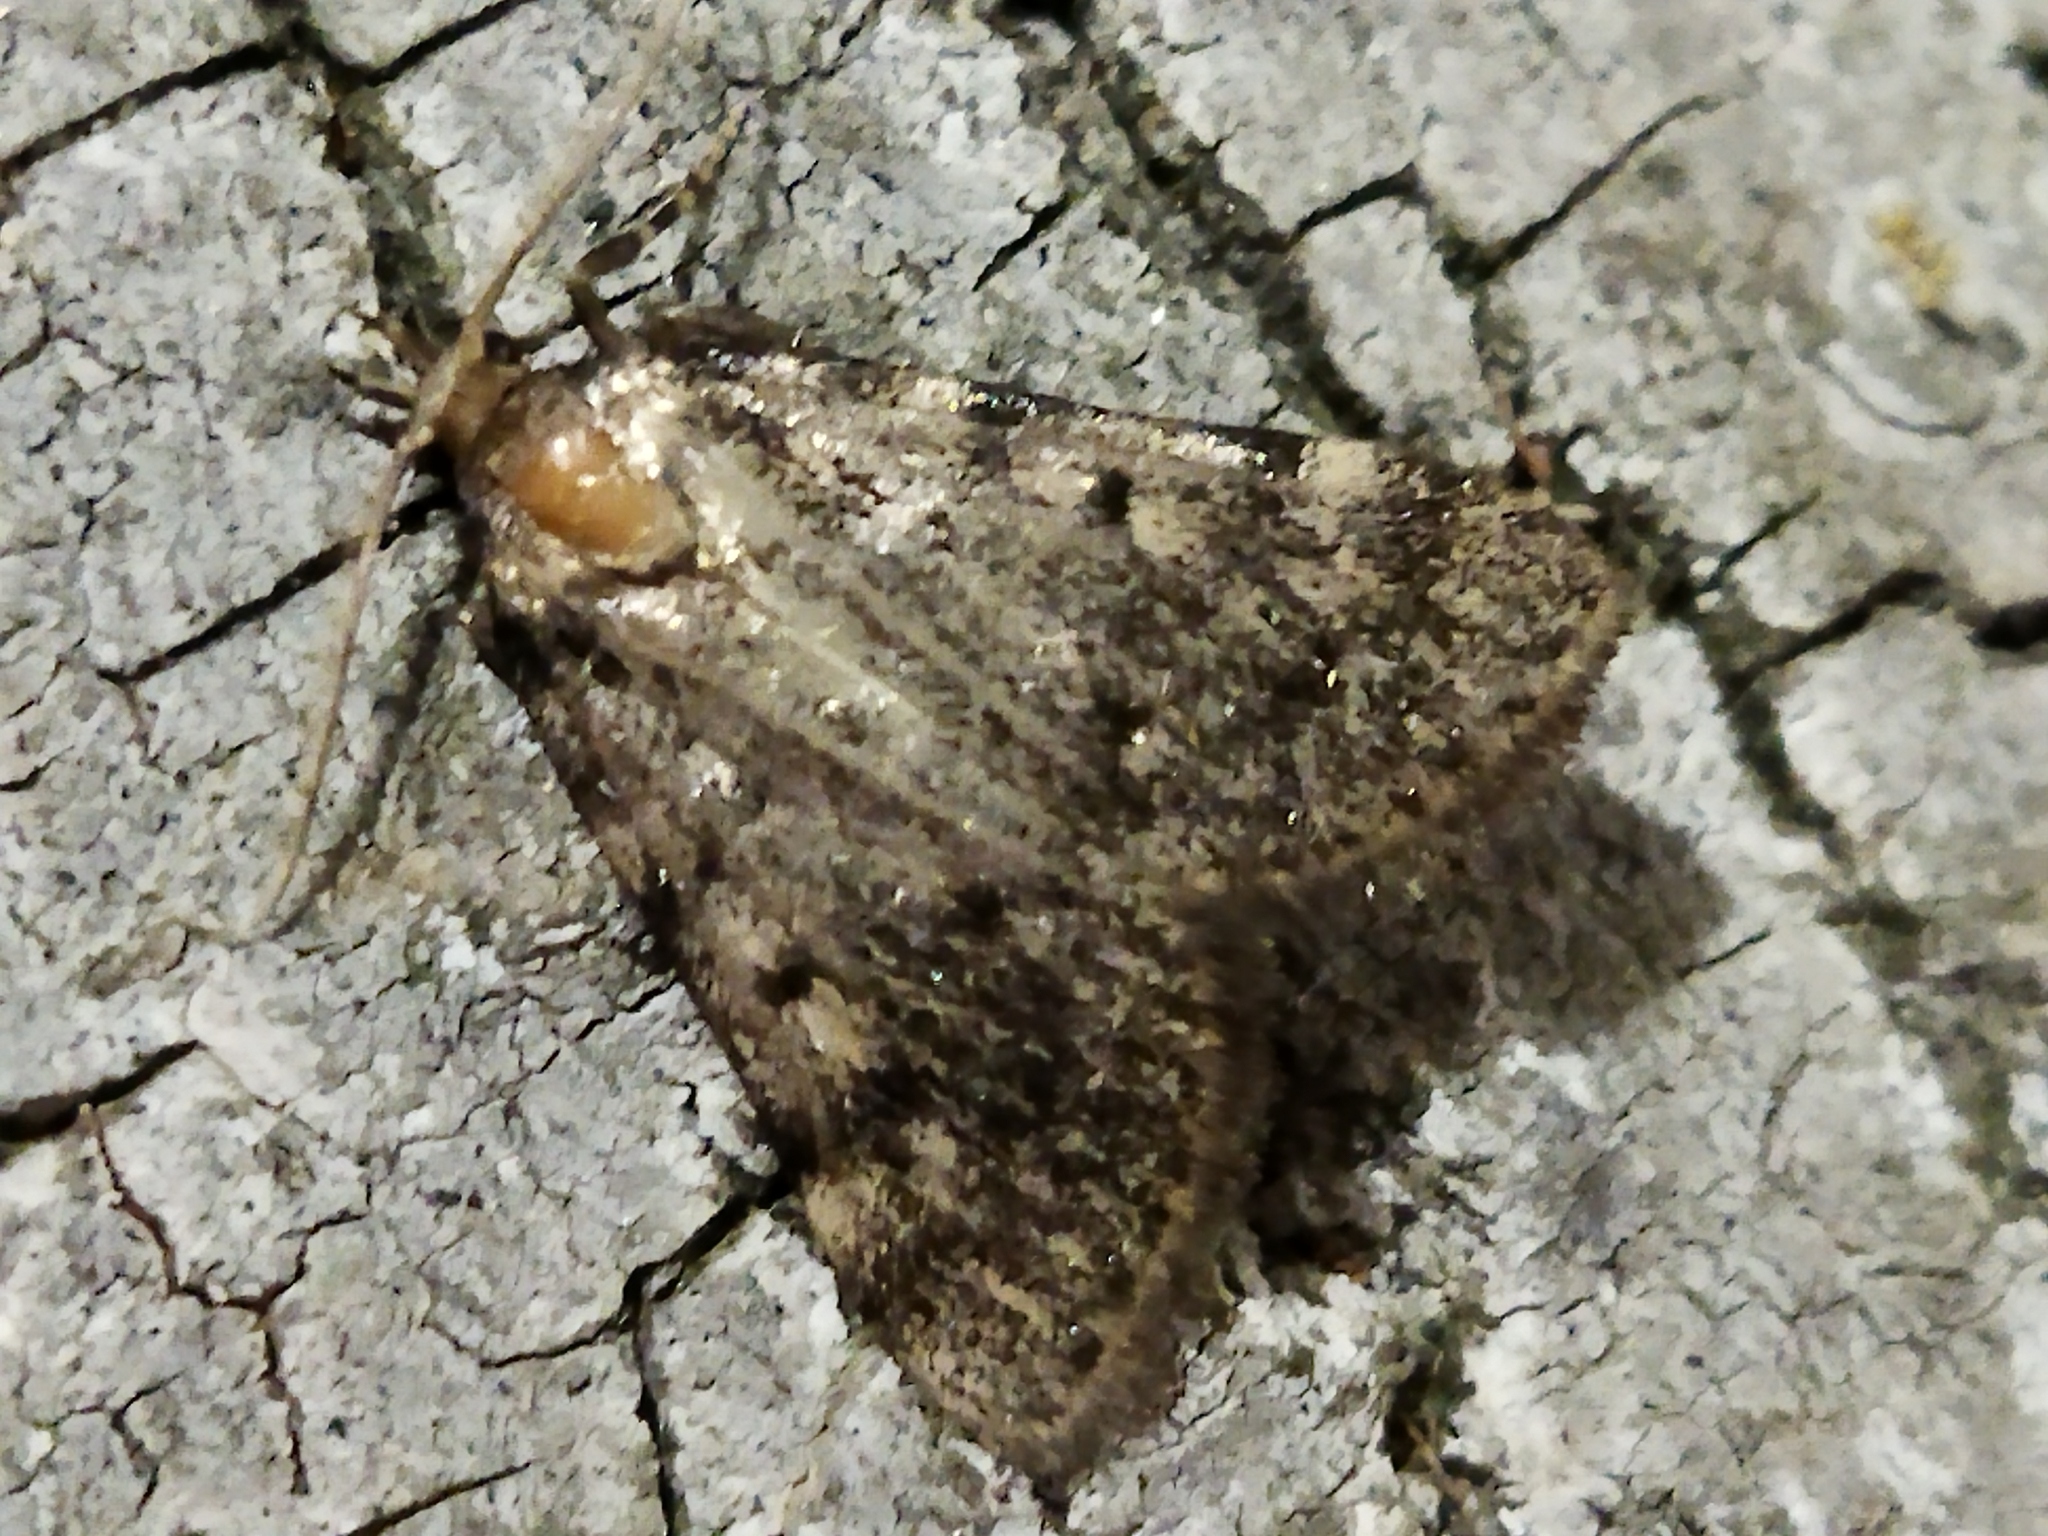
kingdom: Animalia
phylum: Arthropoda
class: Insecta
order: Lepidoptera
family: Pyralidae
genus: Aglossa
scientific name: Aglossa pinguinalis
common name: Large tabby
